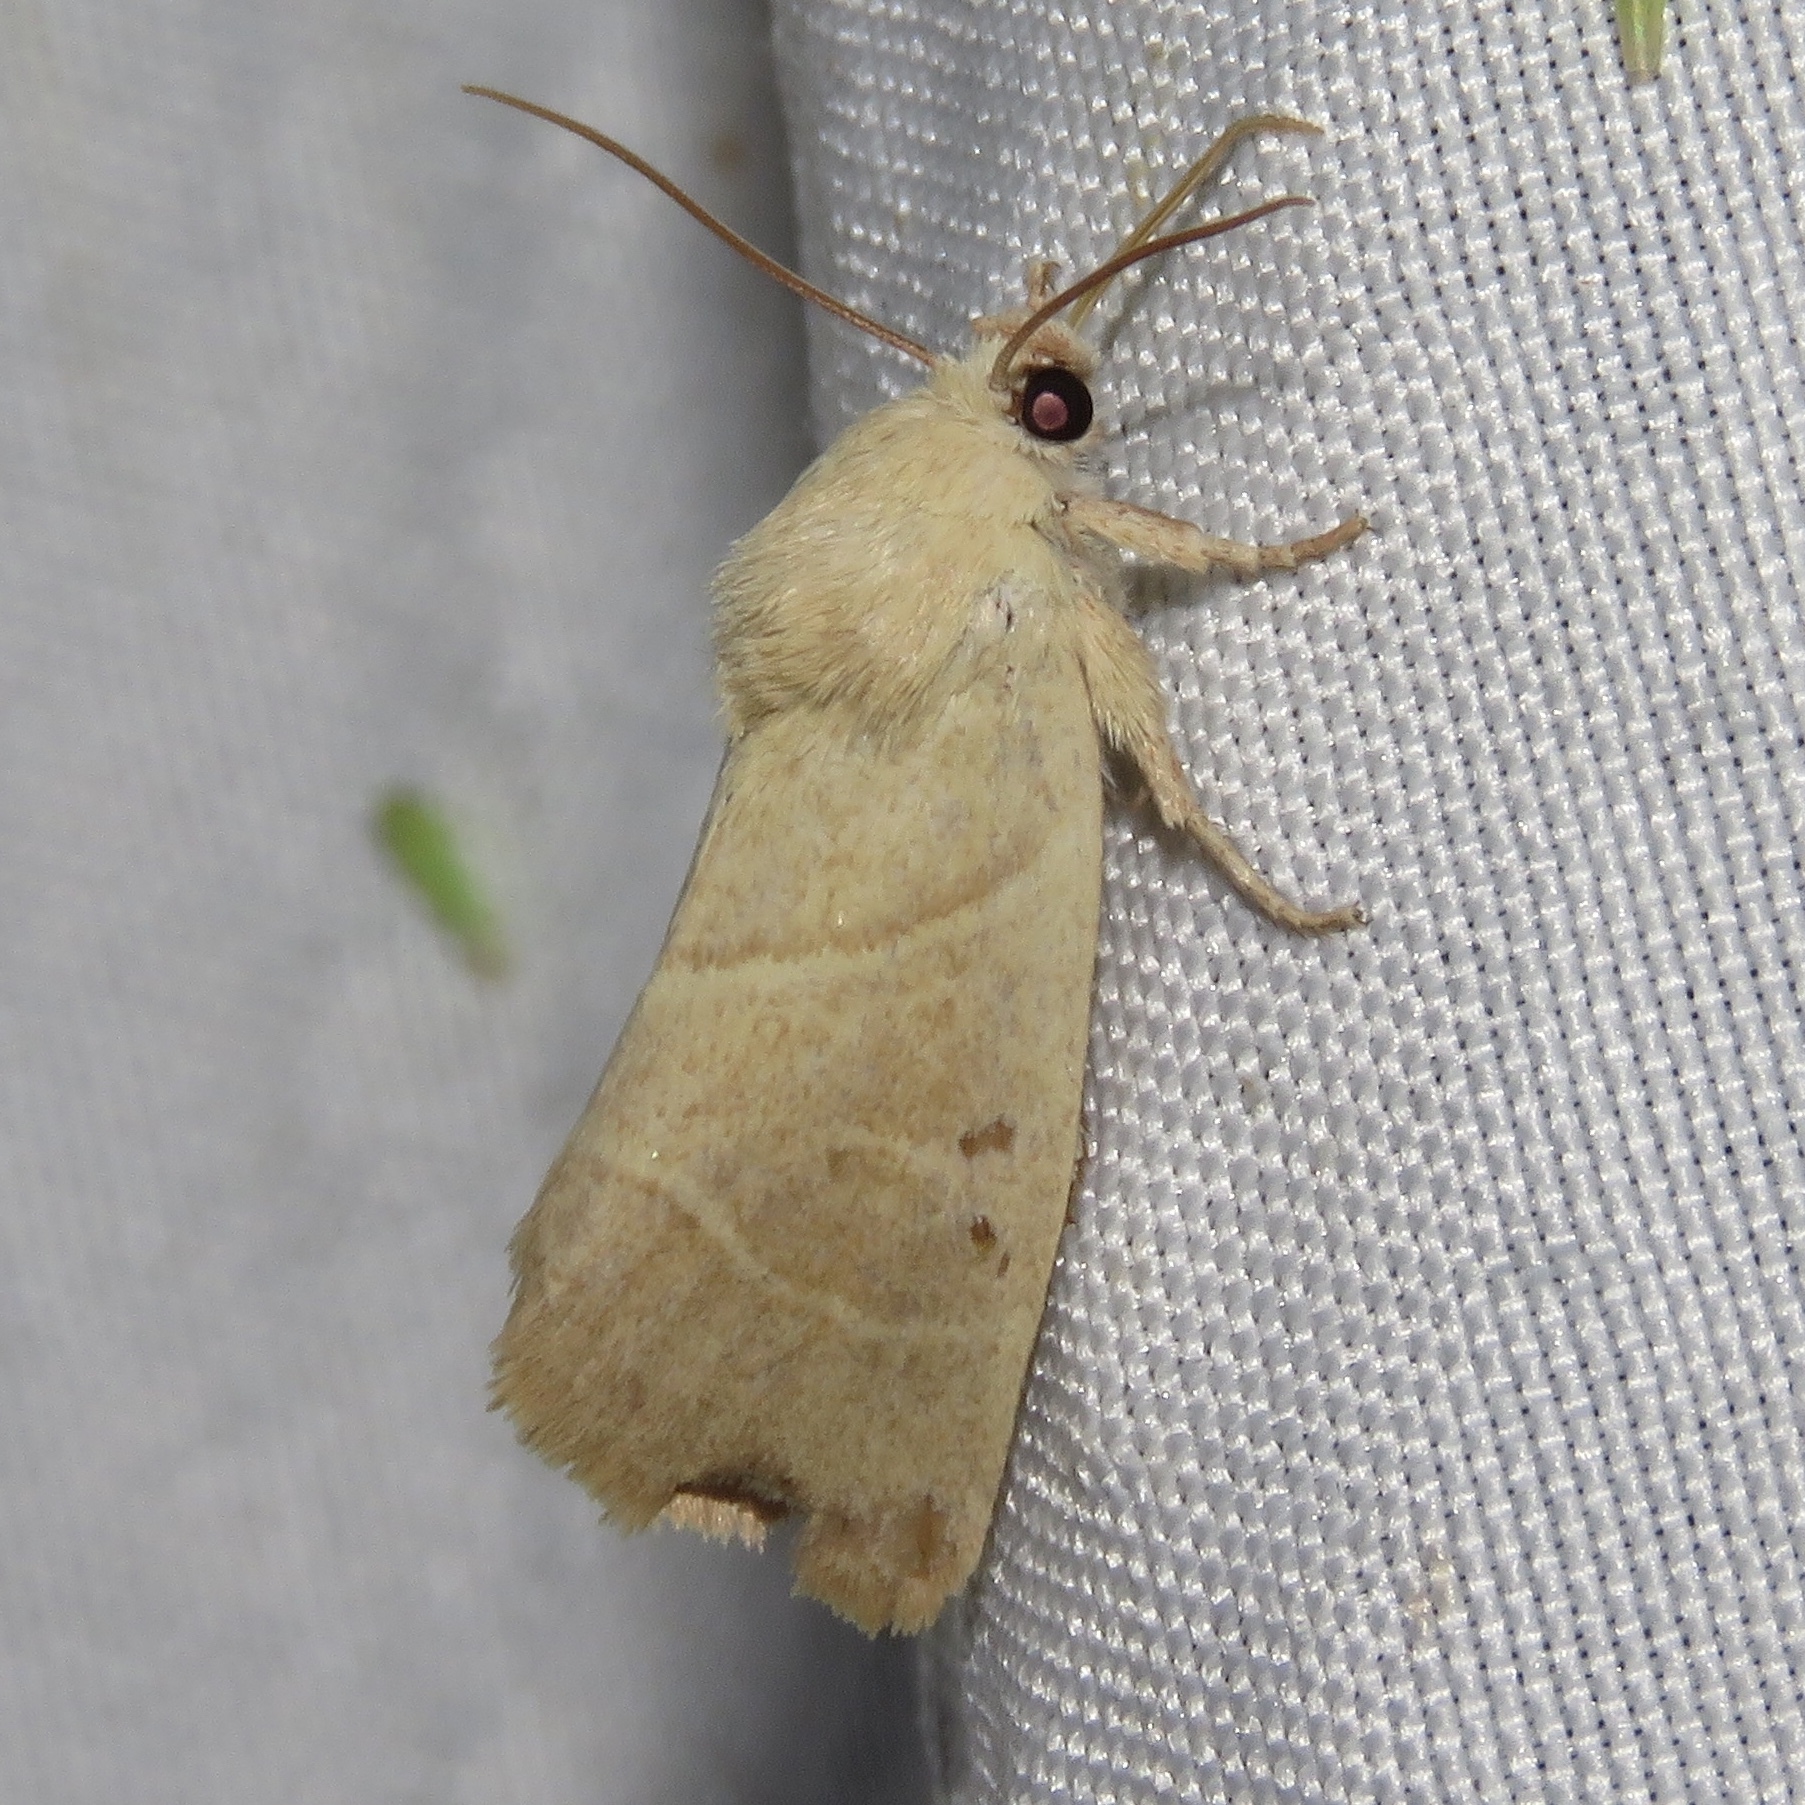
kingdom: Animalia
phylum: Arthropoda
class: Insecta
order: Lepidoptera
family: Noctuidae
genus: Cosmia
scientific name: Cosmia calami
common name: American dun-bar moth
